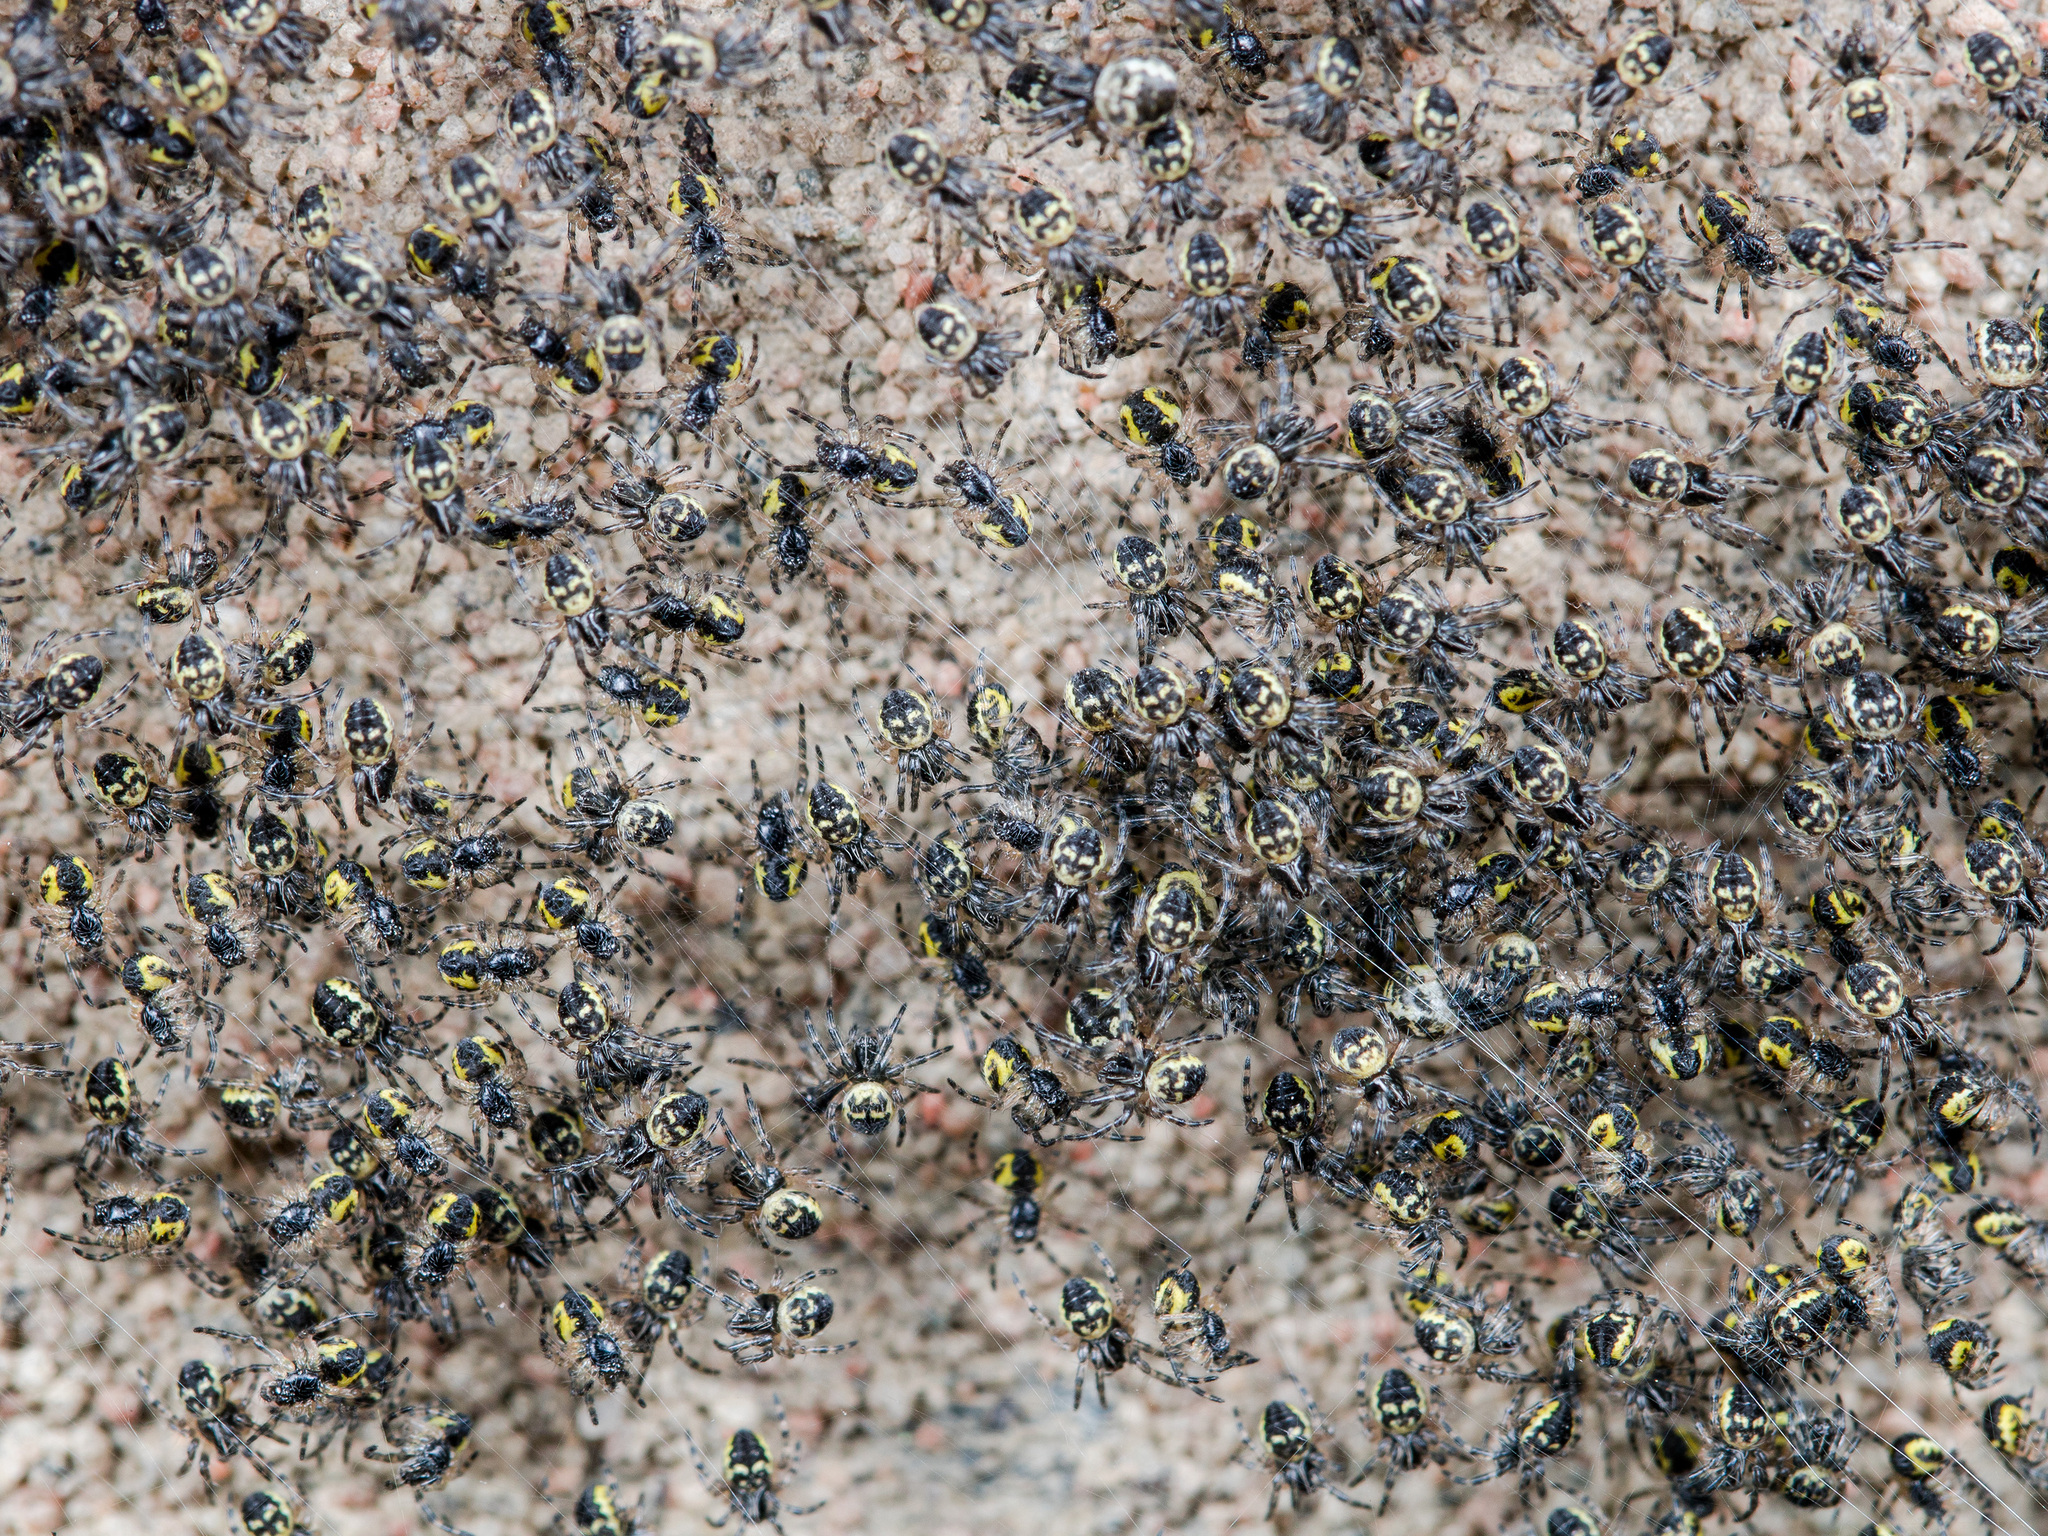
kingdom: Animalia
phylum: Arthropoda
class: Arachnida
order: Araneae
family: Araneidae
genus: Araneus
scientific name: Araneus tartaricus
